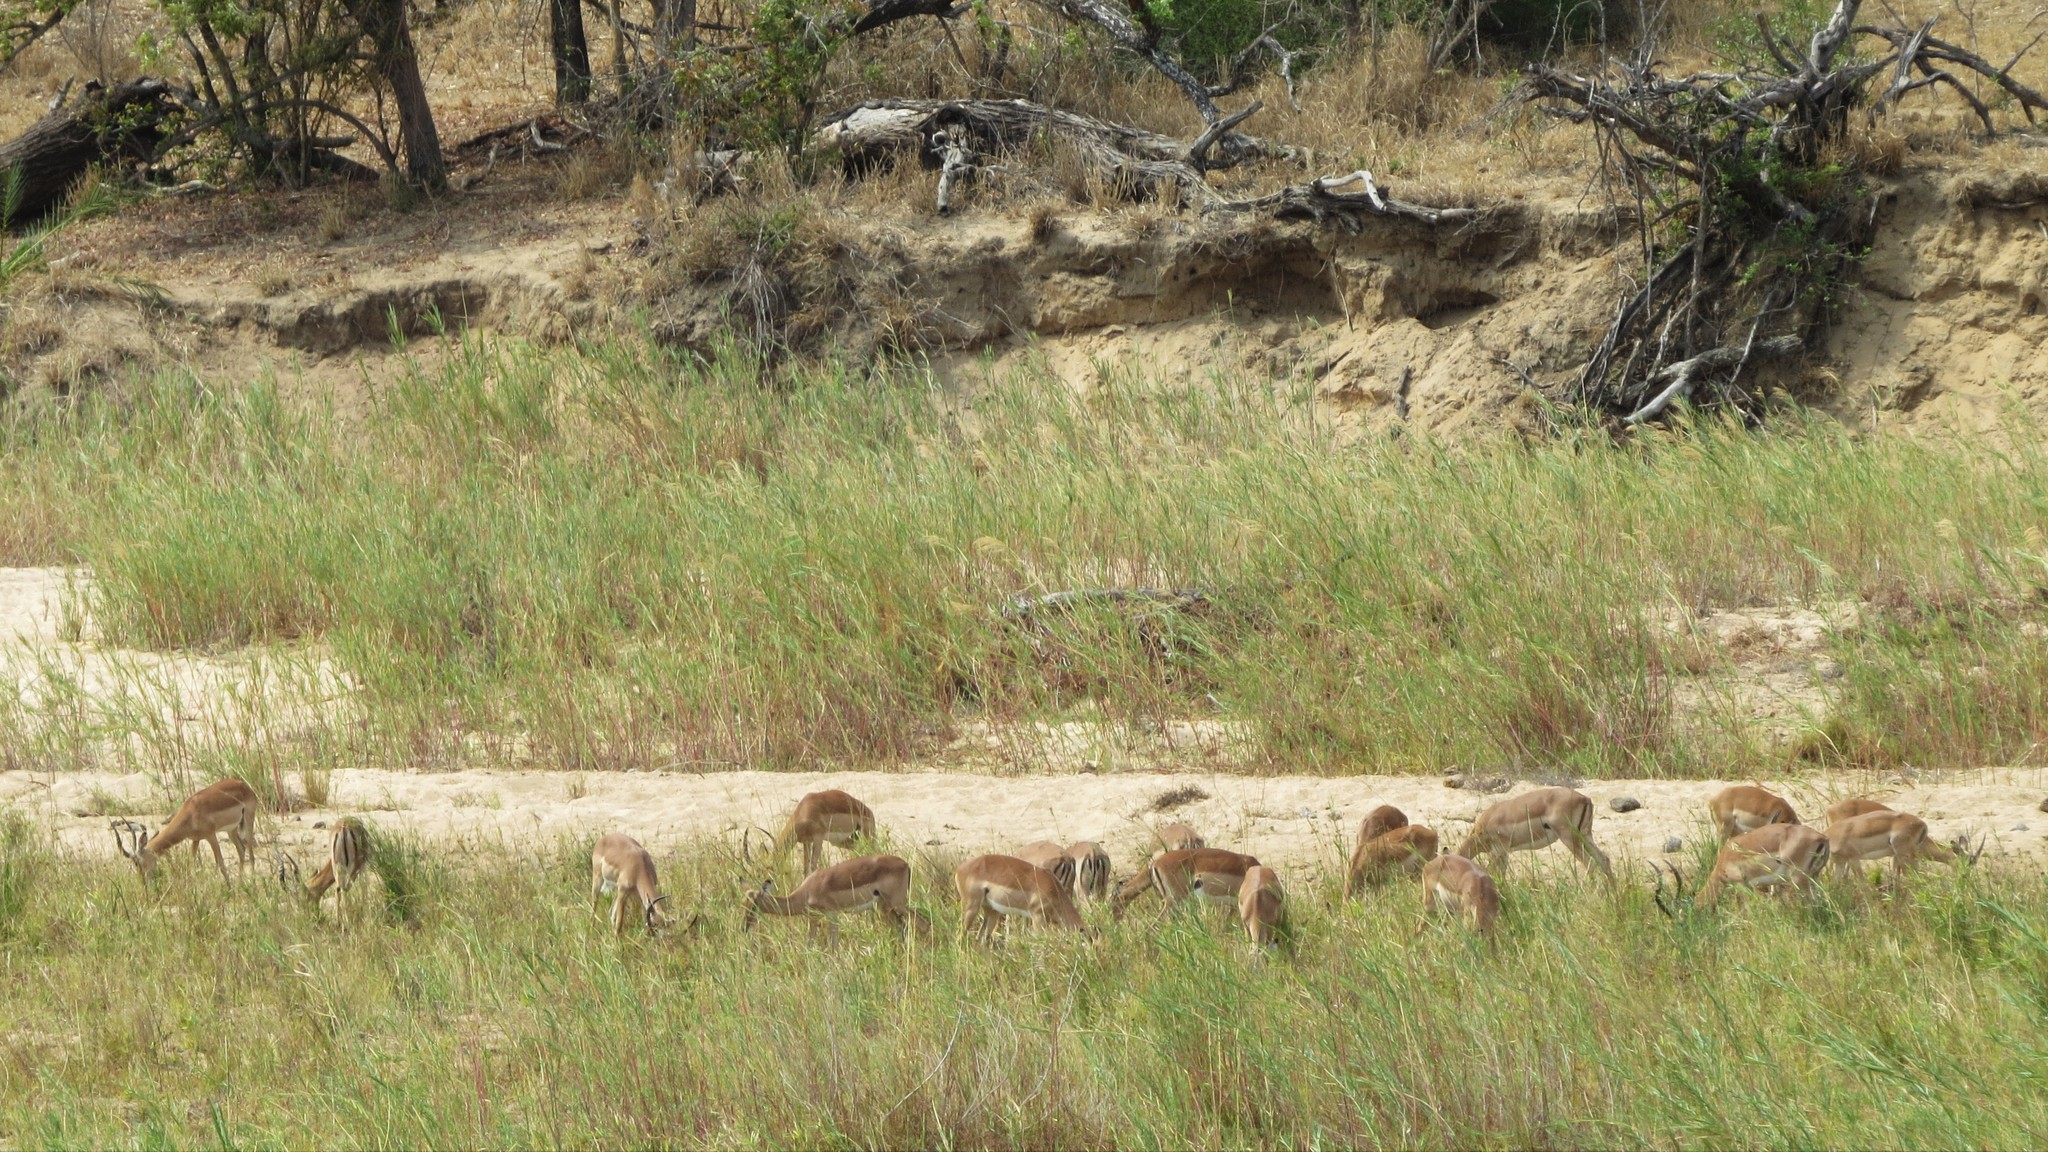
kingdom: Animalia
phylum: Chordata
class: Mammalia
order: Artiodactyla
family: Bovidae
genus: Aepyceros
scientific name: Aepyceros melampus
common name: Impala
